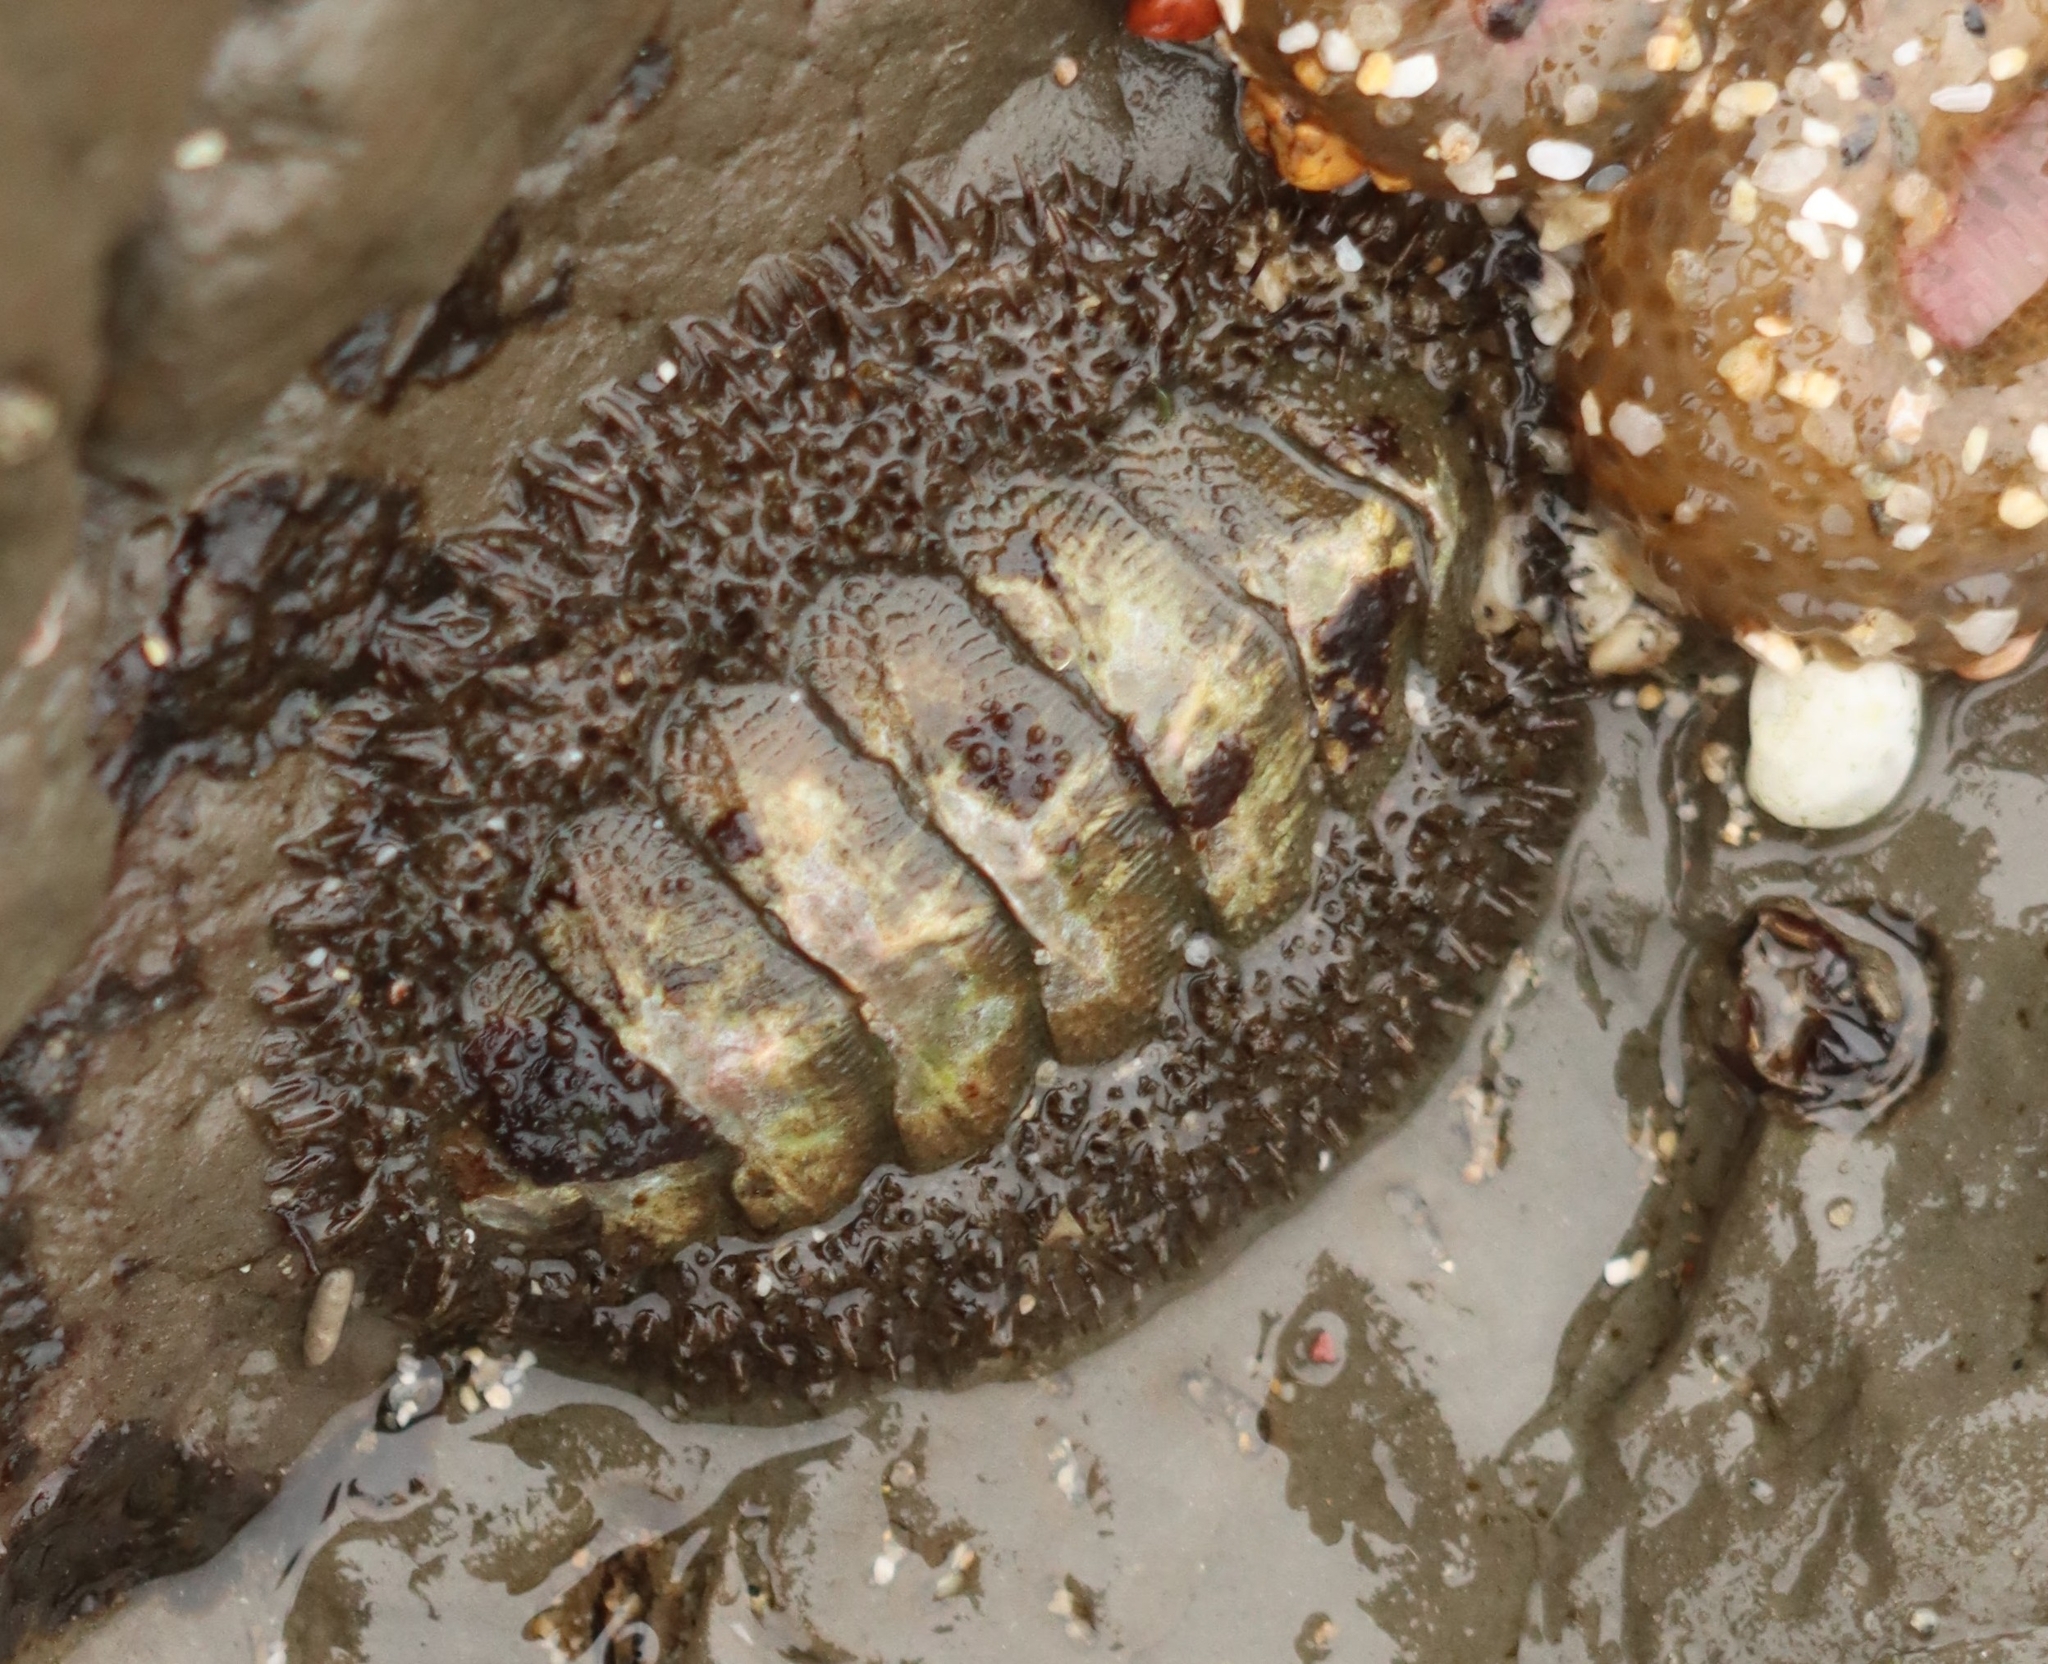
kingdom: Animalia
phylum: Mollusca
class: Polyplacophora
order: Chitonida
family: Mopaliidae
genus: Mopalia
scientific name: Mopalia muscosa
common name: Mossy chiton
